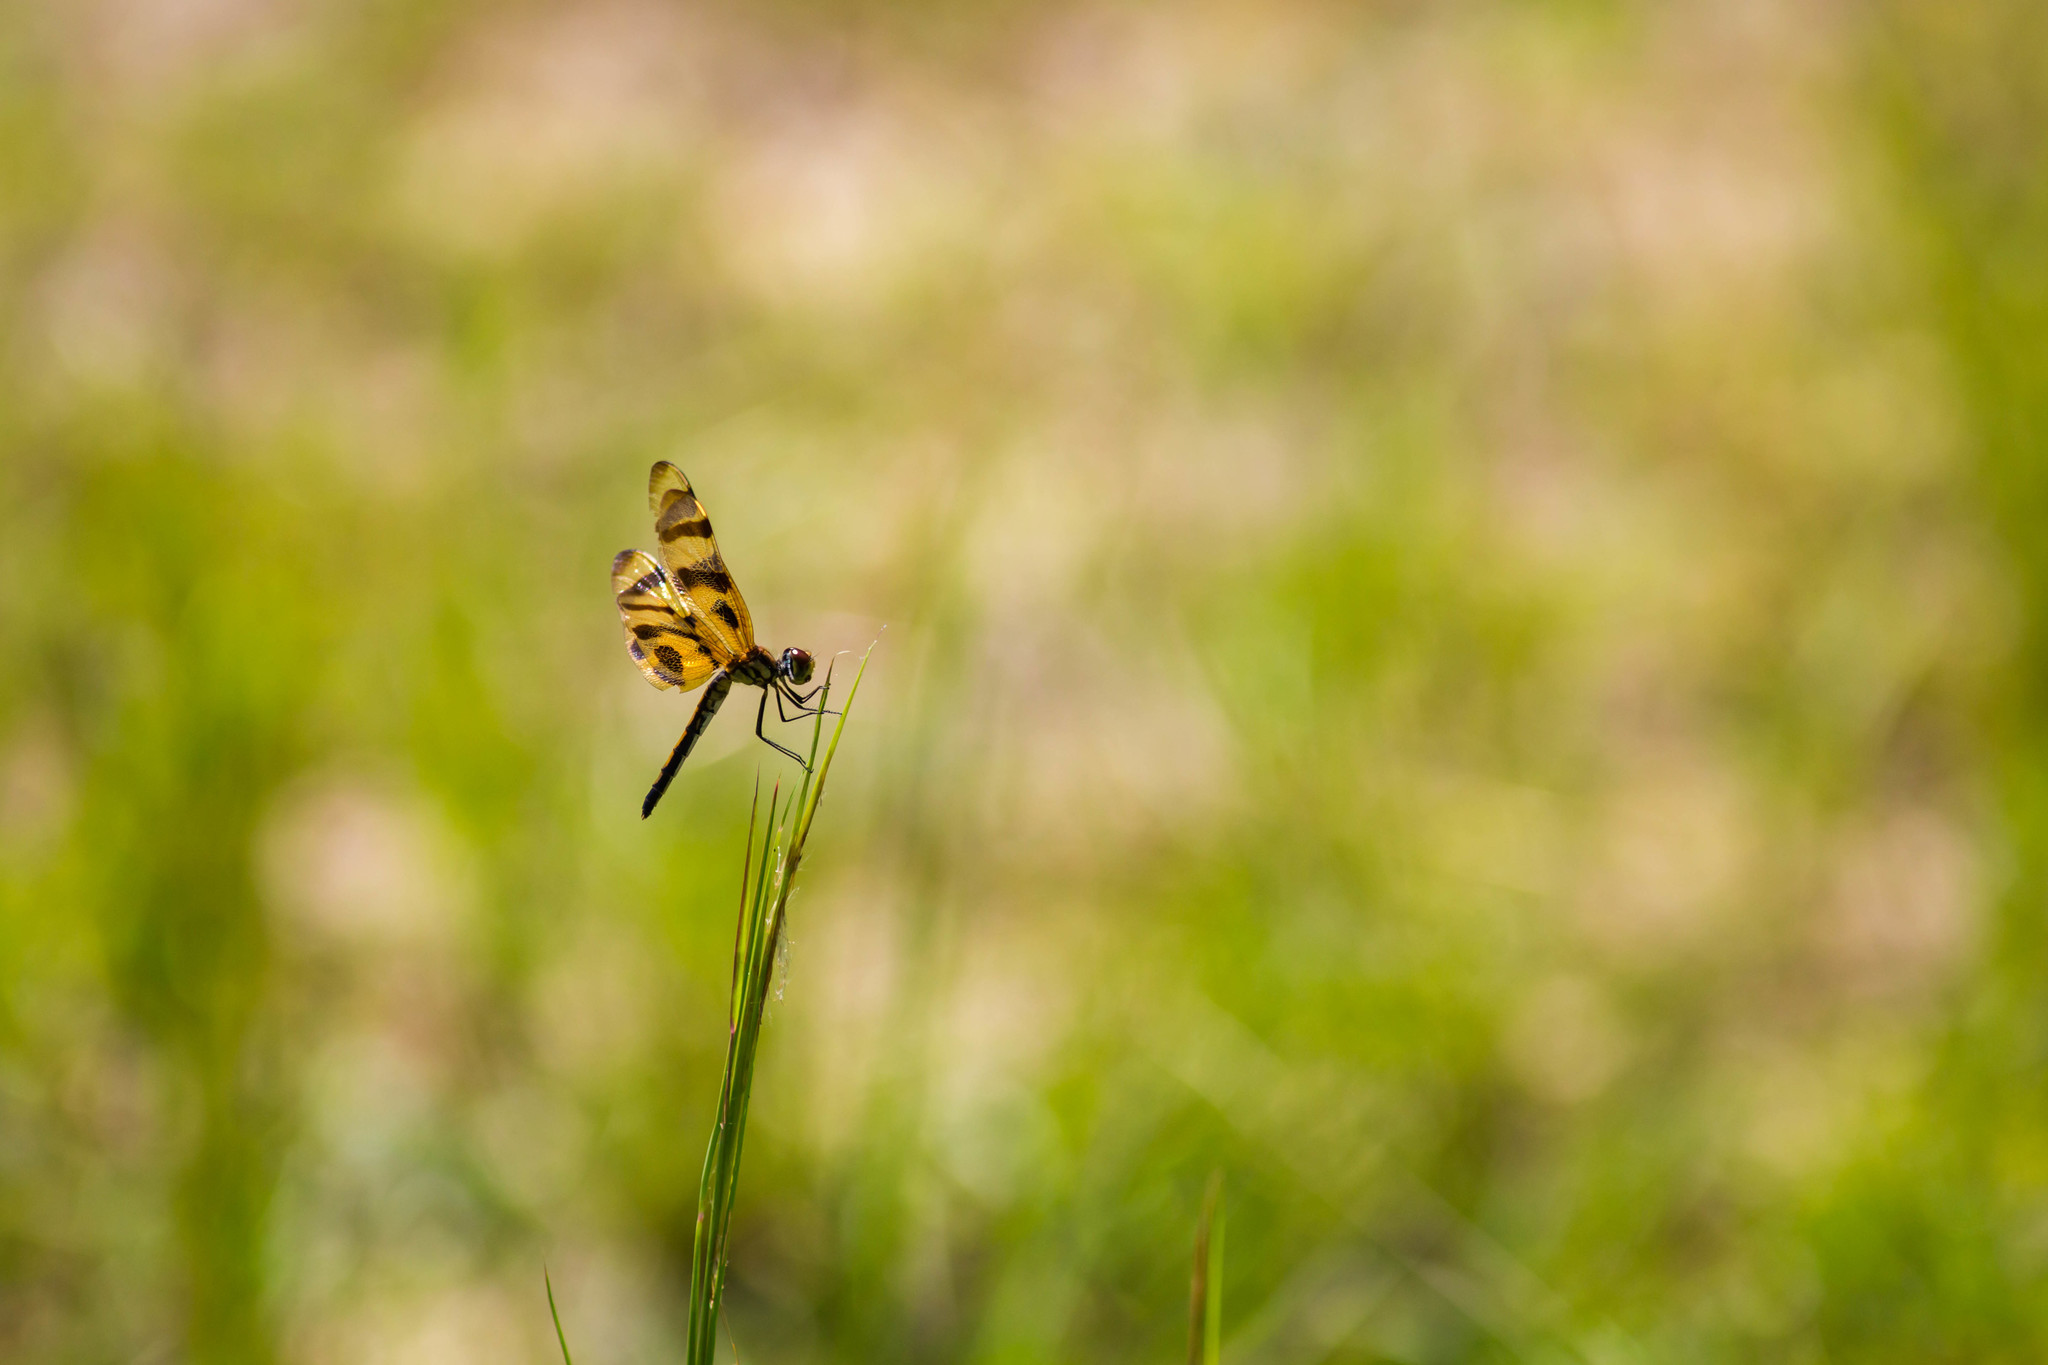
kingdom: Animalia
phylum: Arthropoda
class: Insecta
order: Odonata
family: Libellulidae
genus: Celithemis
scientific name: Celithemis eponina
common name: Halloween pennant
